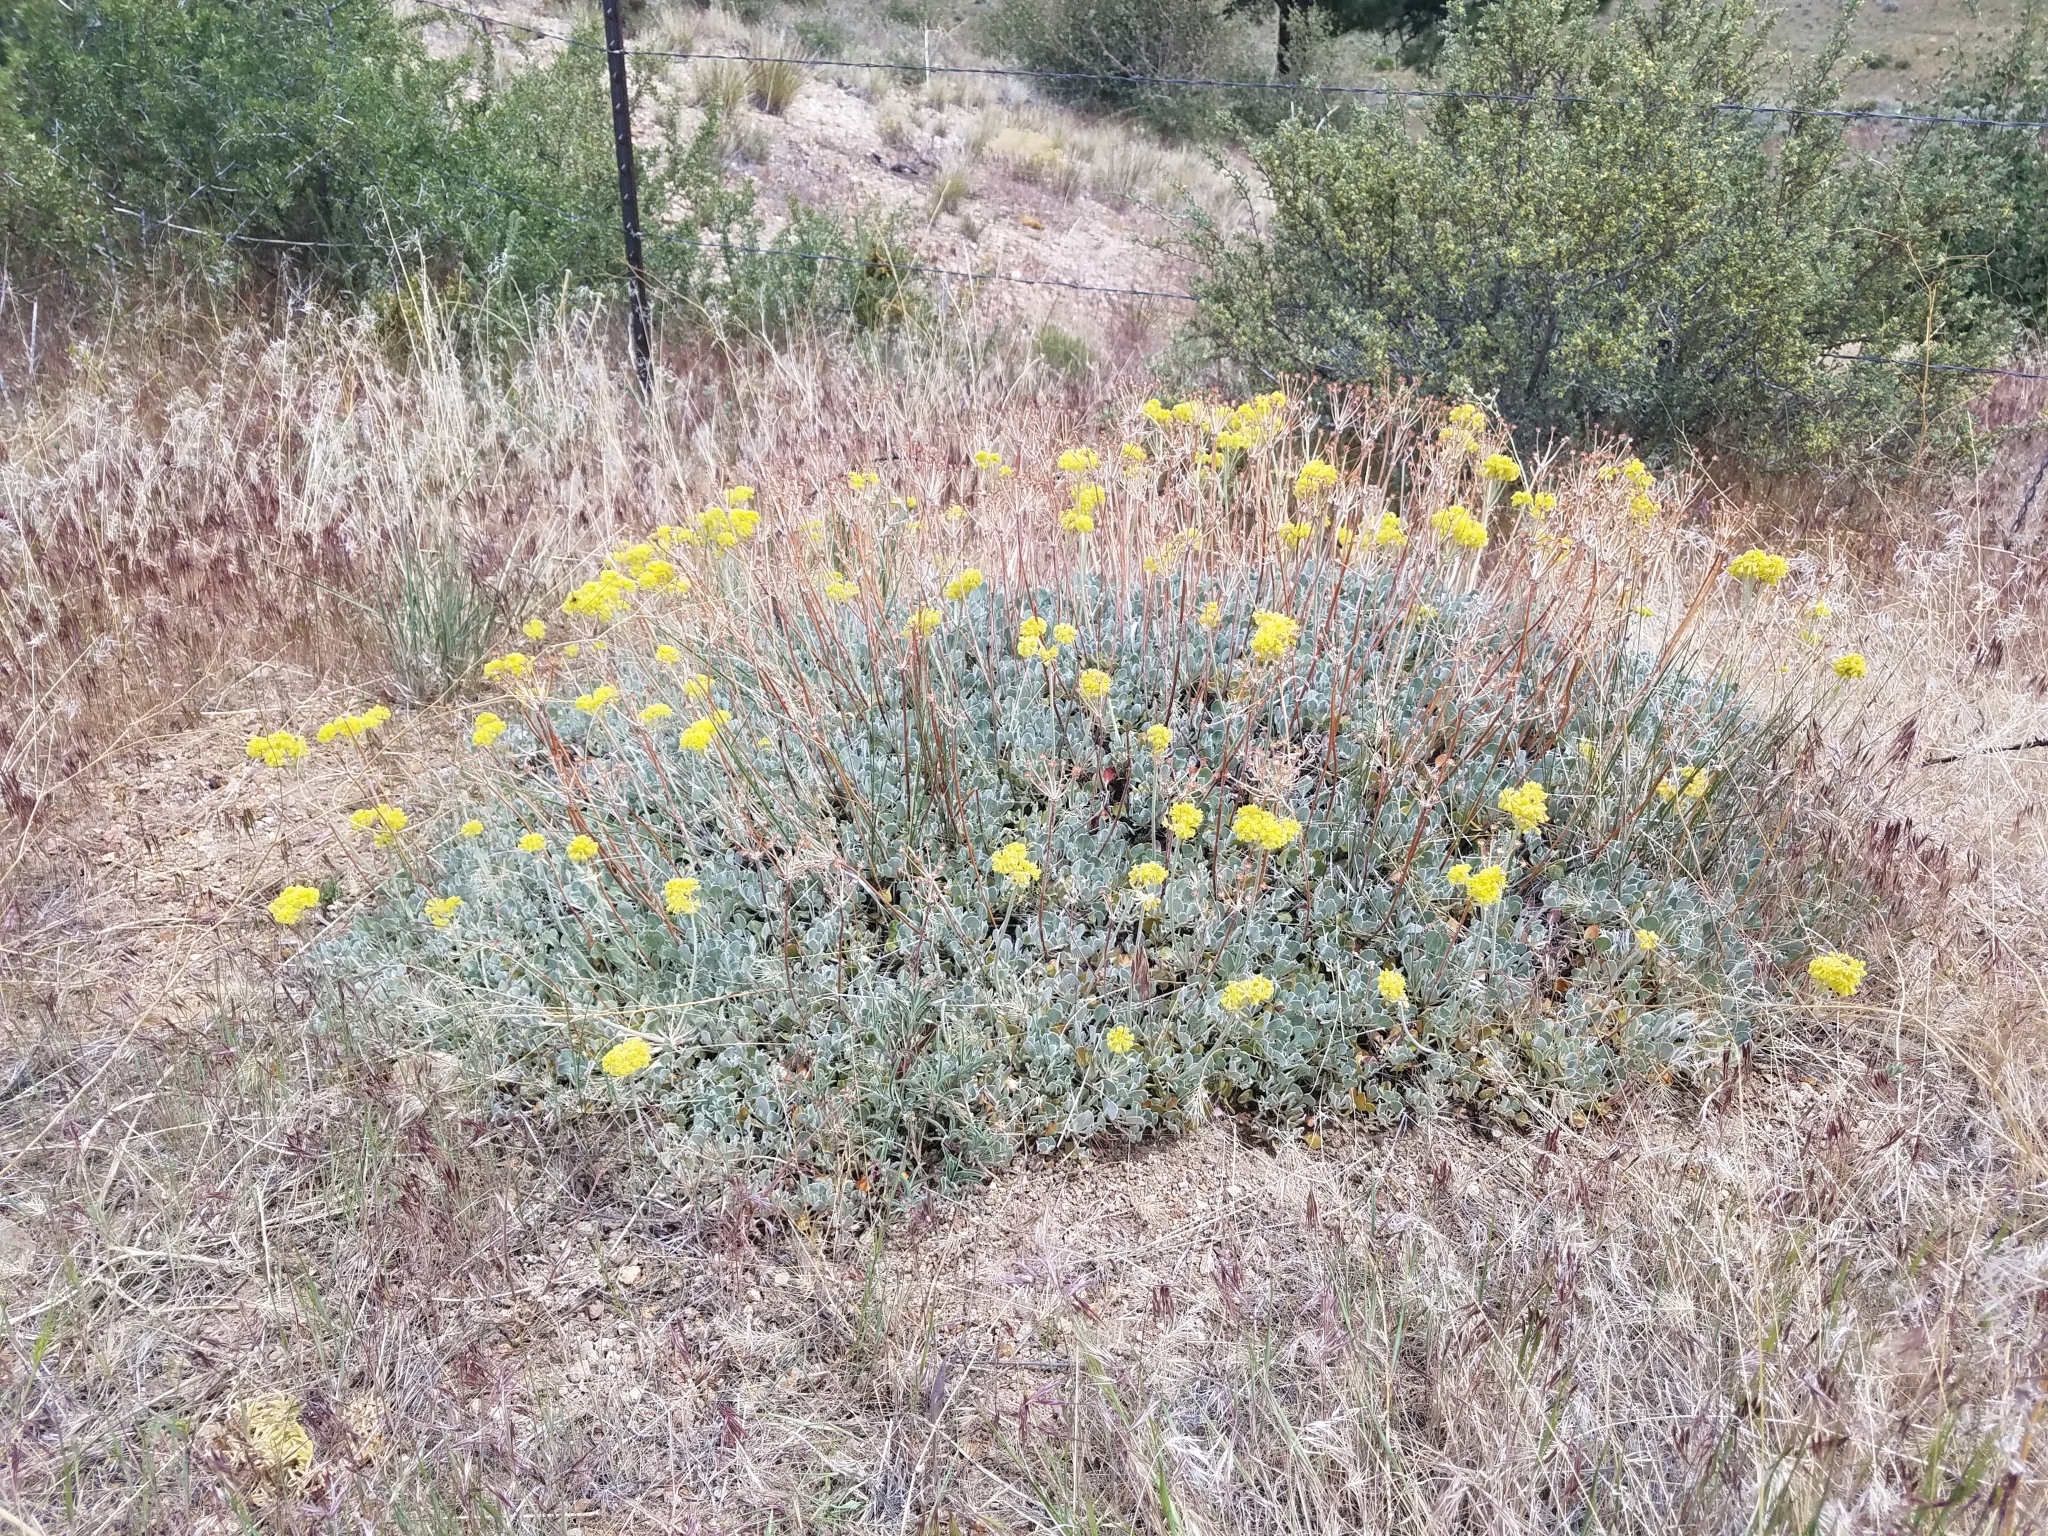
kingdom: Plantae
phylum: Tracheophyta
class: Magnoliopsida
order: Caryophyllales
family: Polygonaceae
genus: Eriogonum
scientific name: Eriogonum strictum
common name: Blue mountain buckwheat
